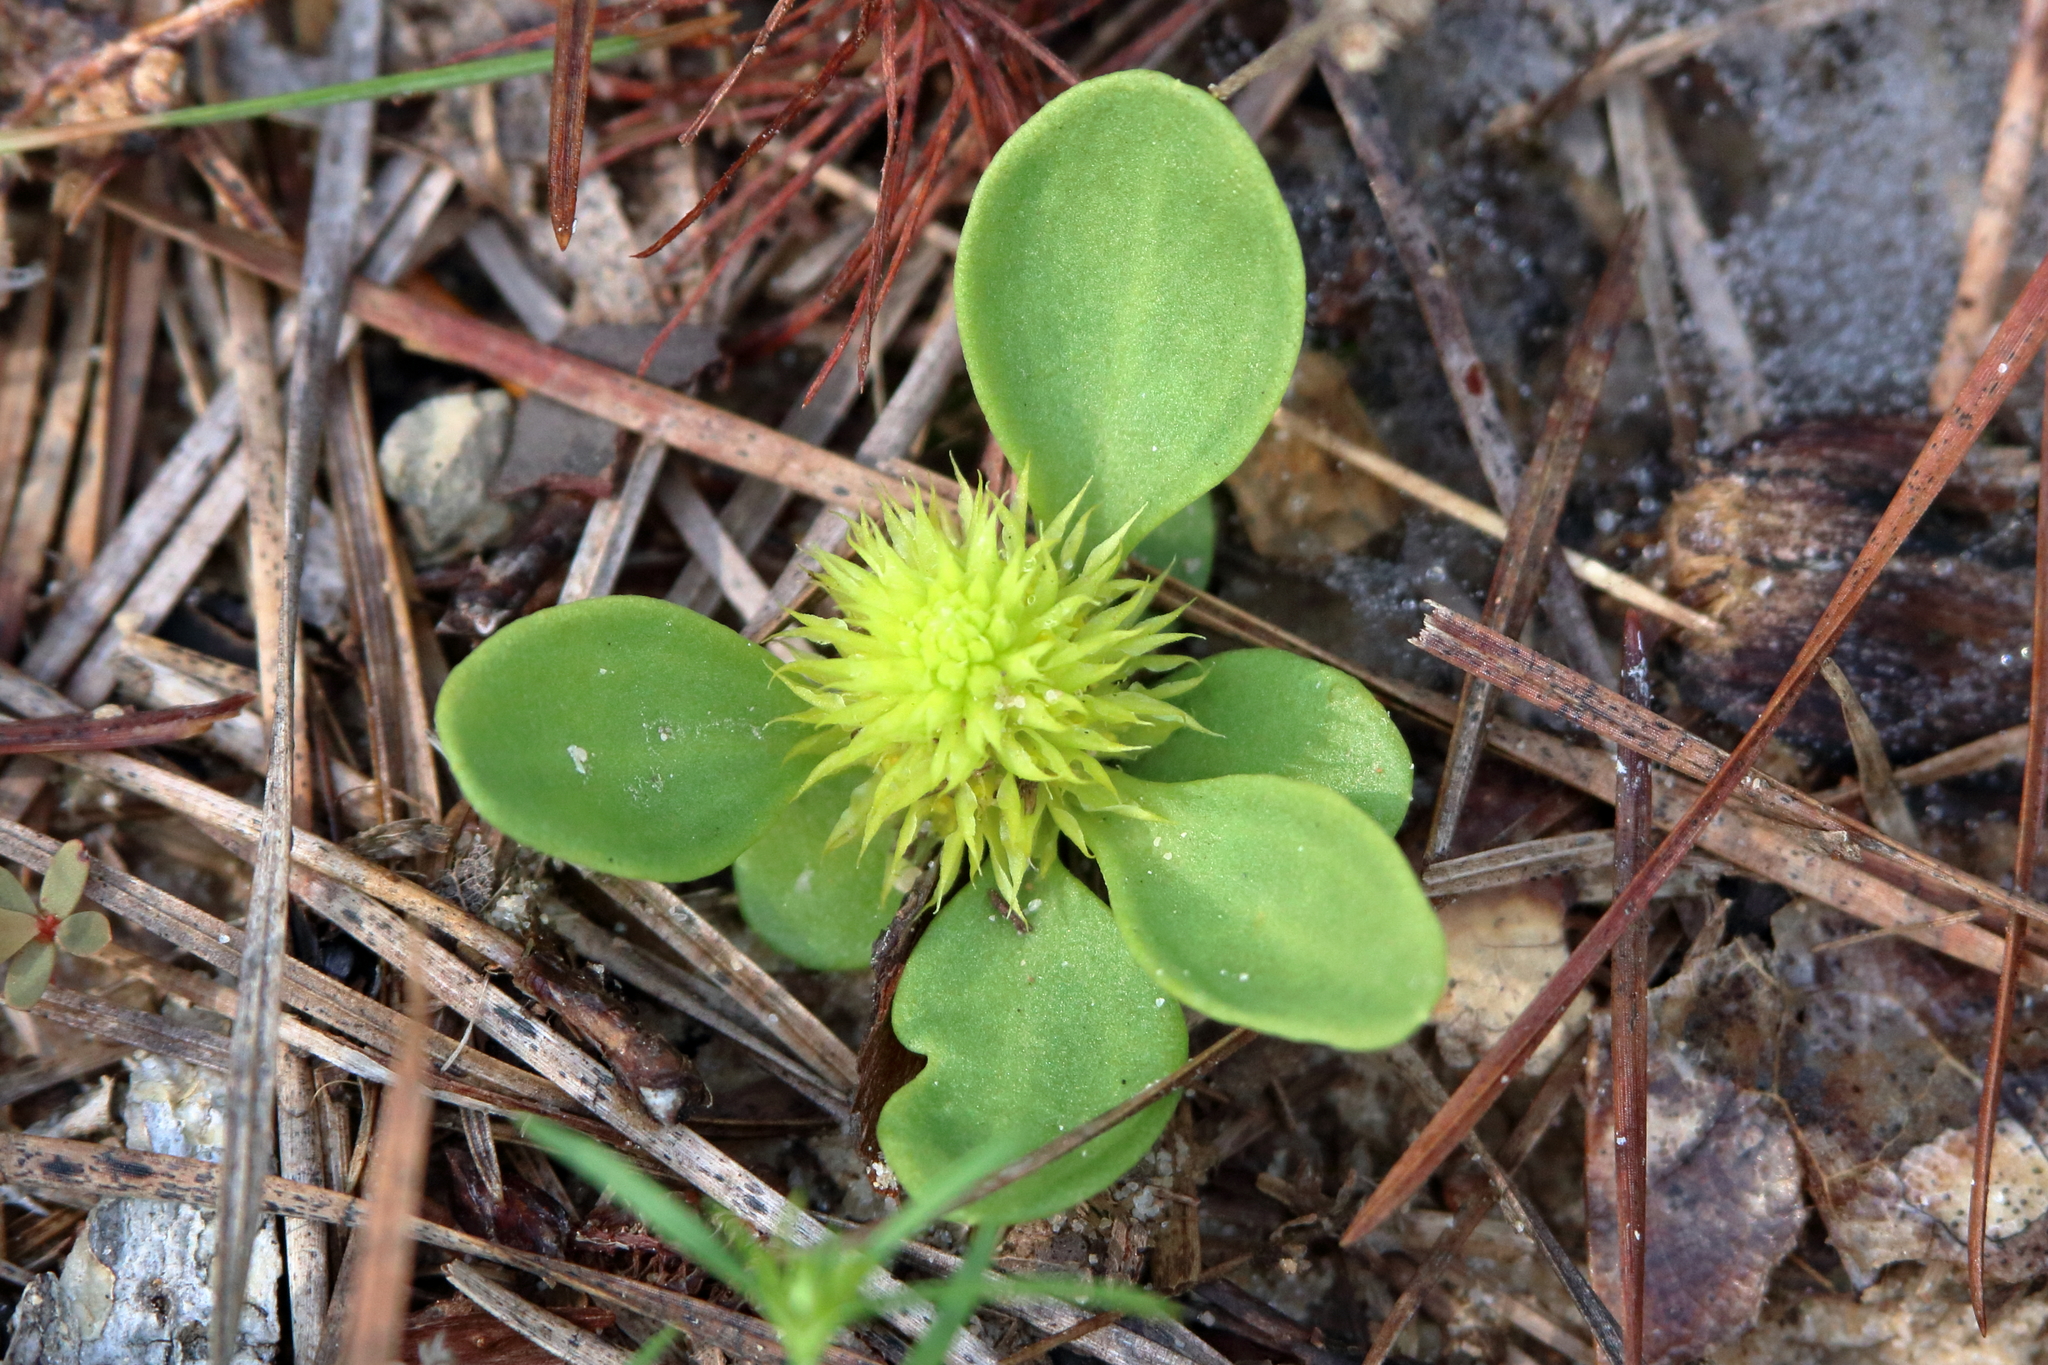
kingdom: Plantae
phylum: Tracheophyta
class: Magnoliopsida
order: Fabales
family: Polygalaceae
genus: Polygala
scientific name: Polygala nana
